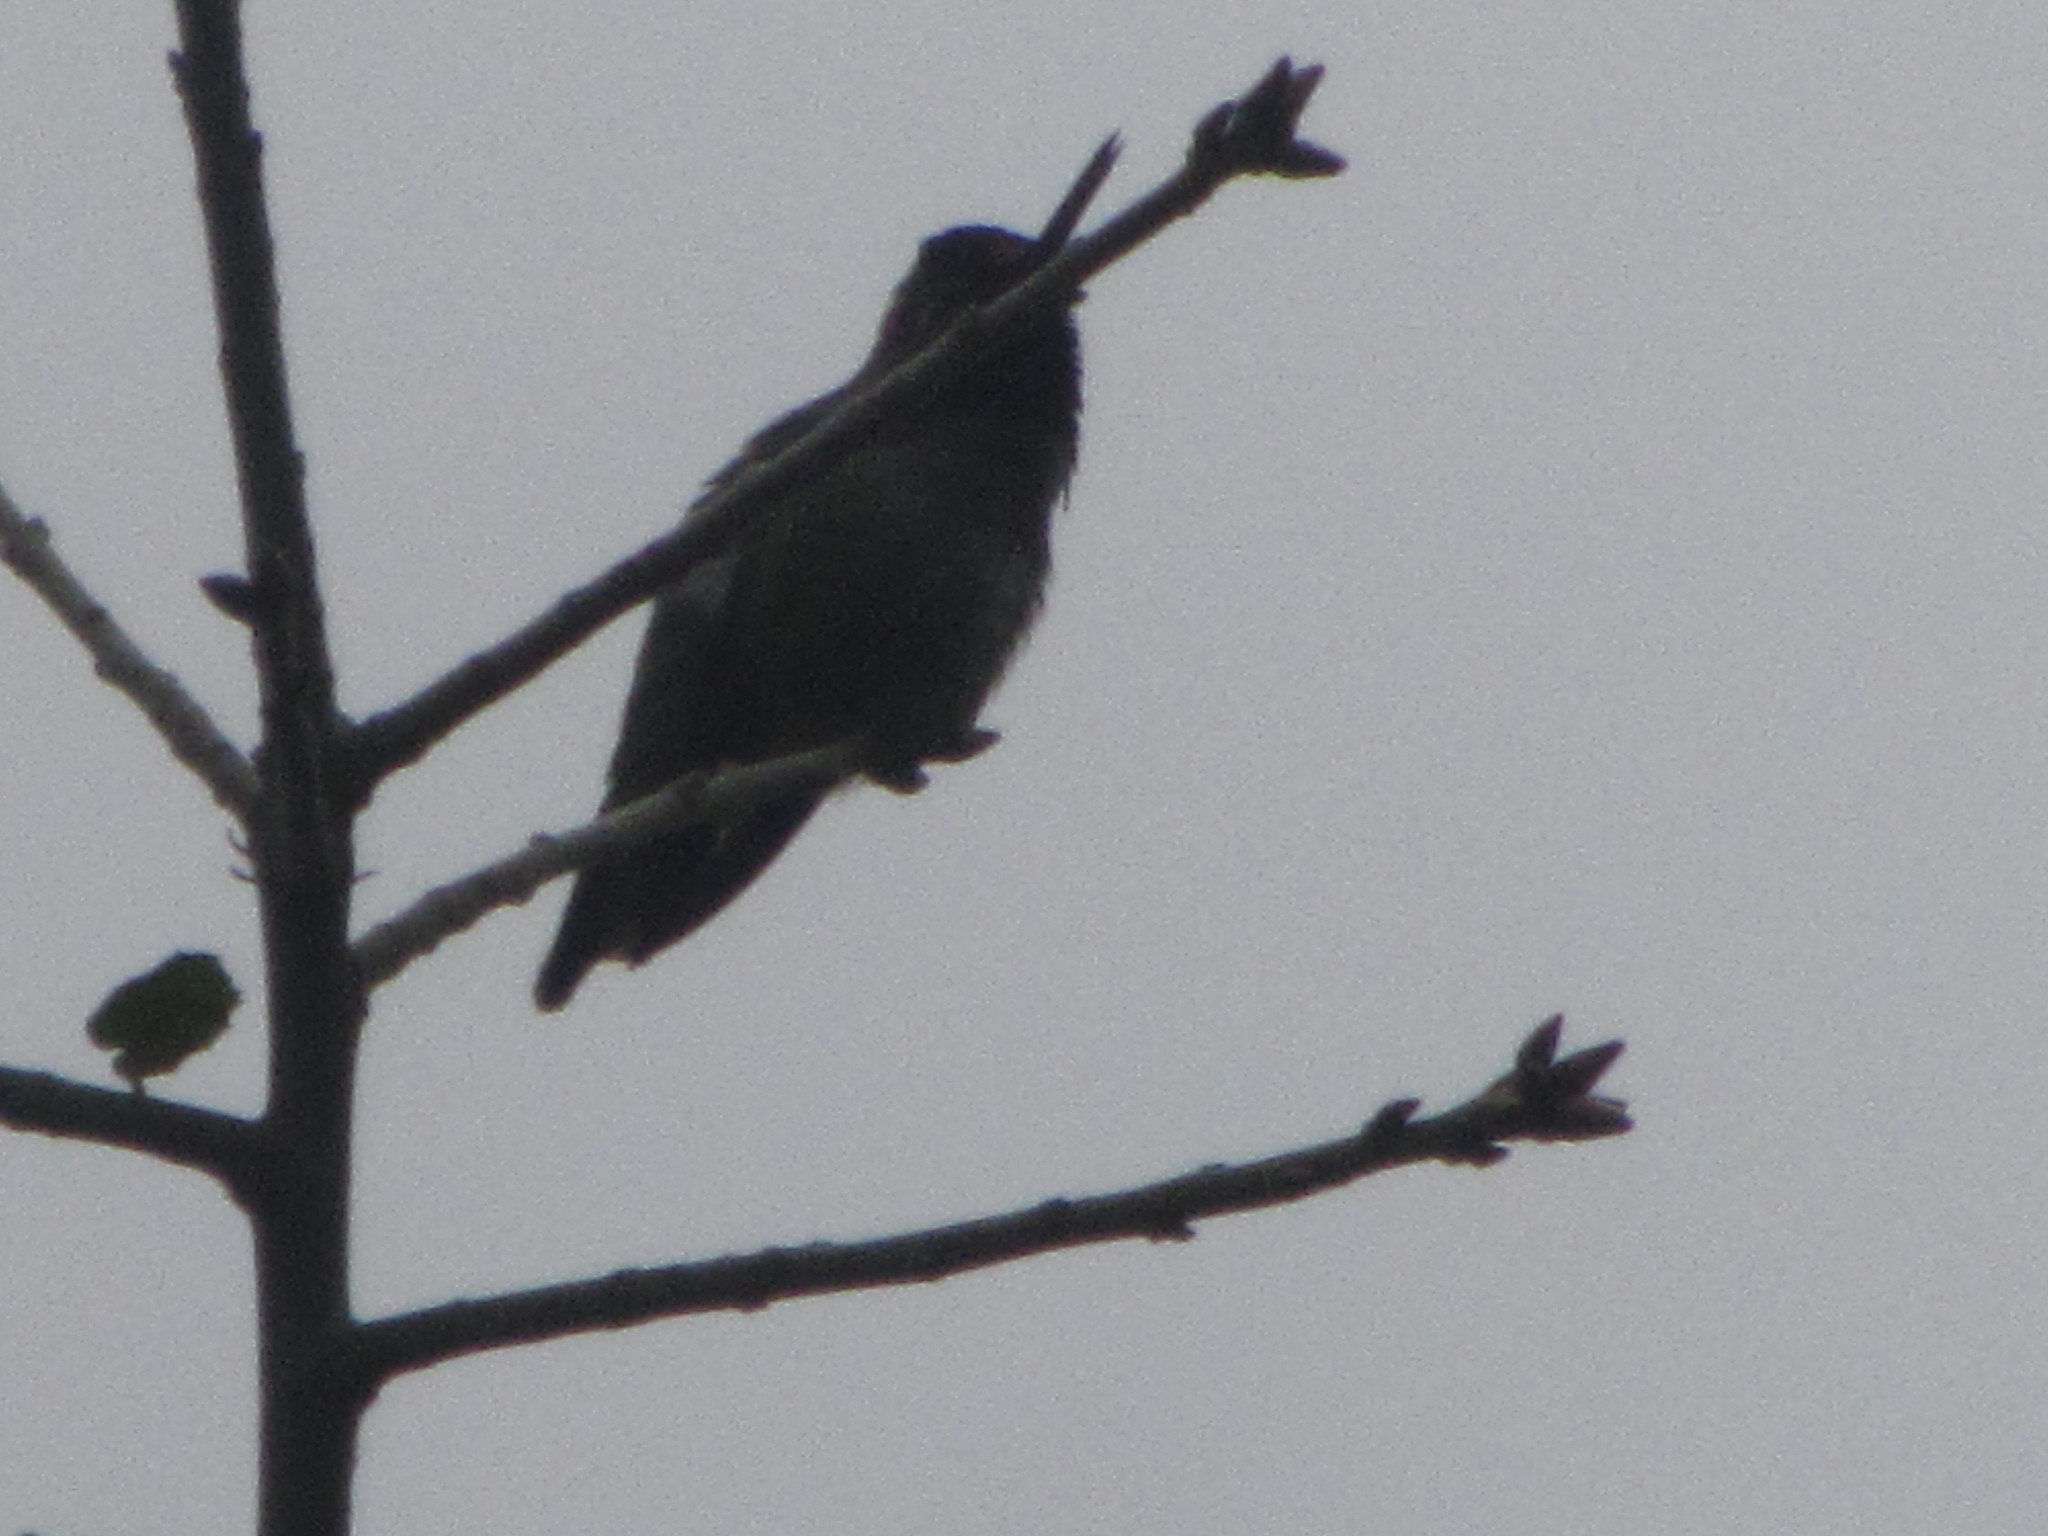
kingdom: Animalia
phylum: Chordata
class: Aves
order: Apodiformes
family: Trochilidae
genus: Calypte
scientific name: Calypte anna
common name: Anna's hummingbird
